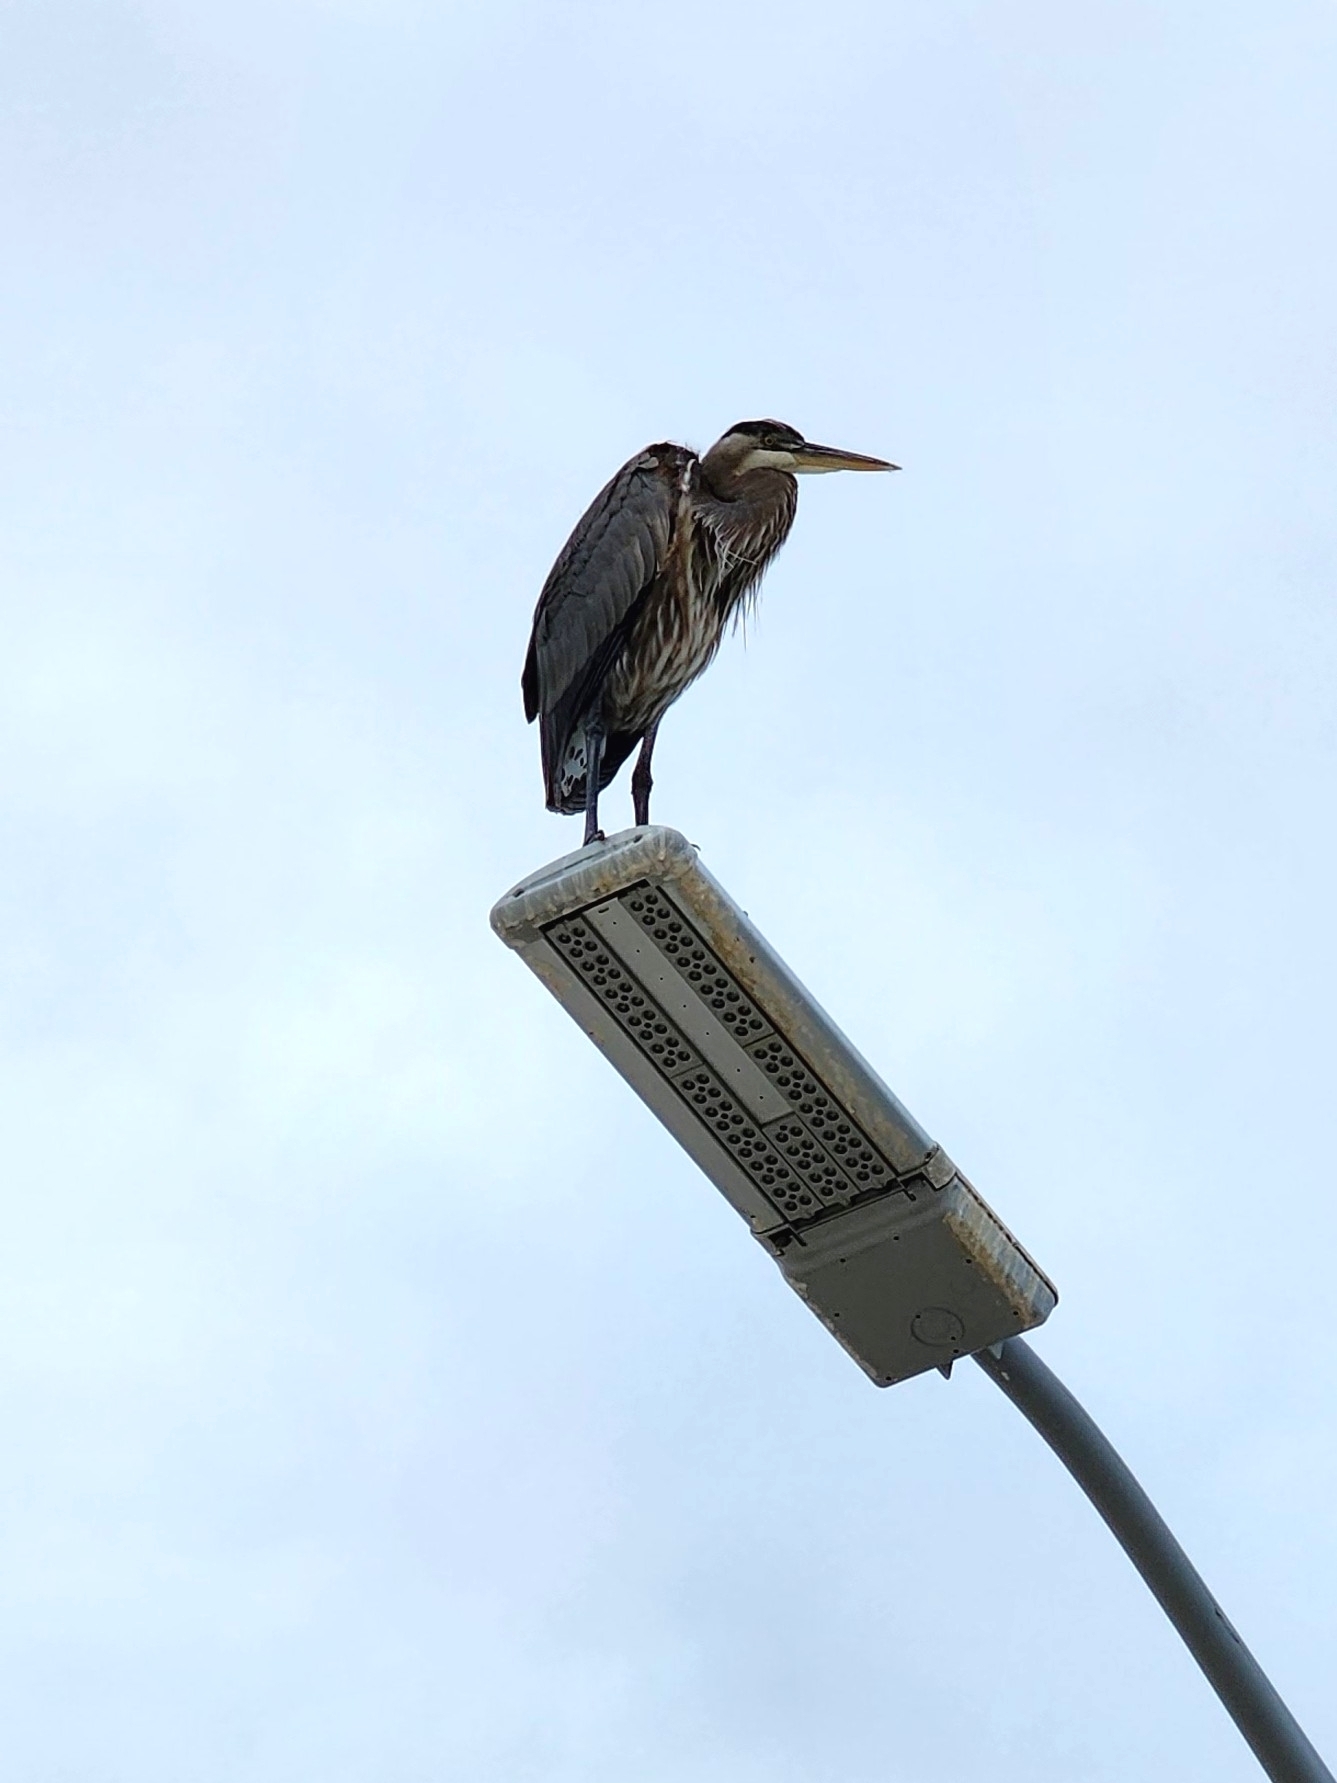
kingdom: Animalia
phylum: Chordata
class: Aves
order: Pelecaniformes
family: Ardeidae
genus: Ardea
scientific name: Ardea herodias
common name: Great blue heron
